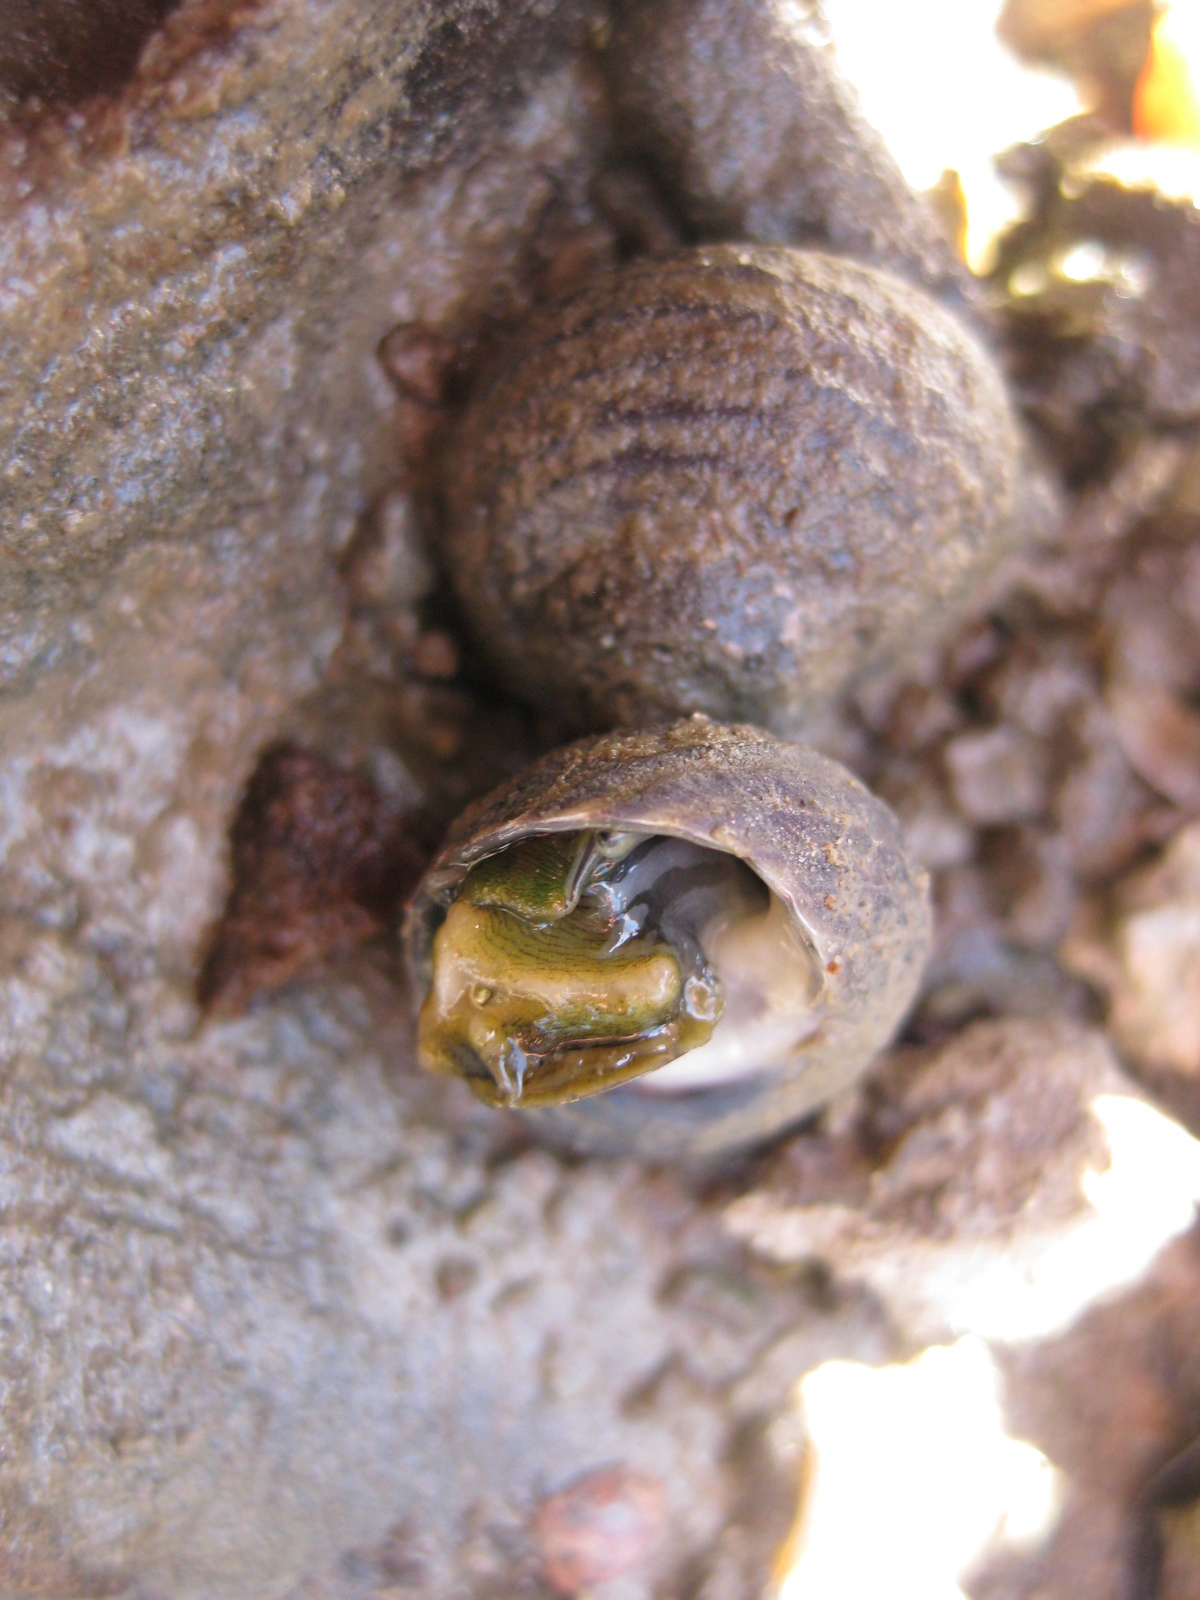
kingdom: Animalia
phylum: Mollusca
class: Gastropoda
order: Trochida
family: Trochidae
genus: Diloma
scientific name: Diloma subrostratum
